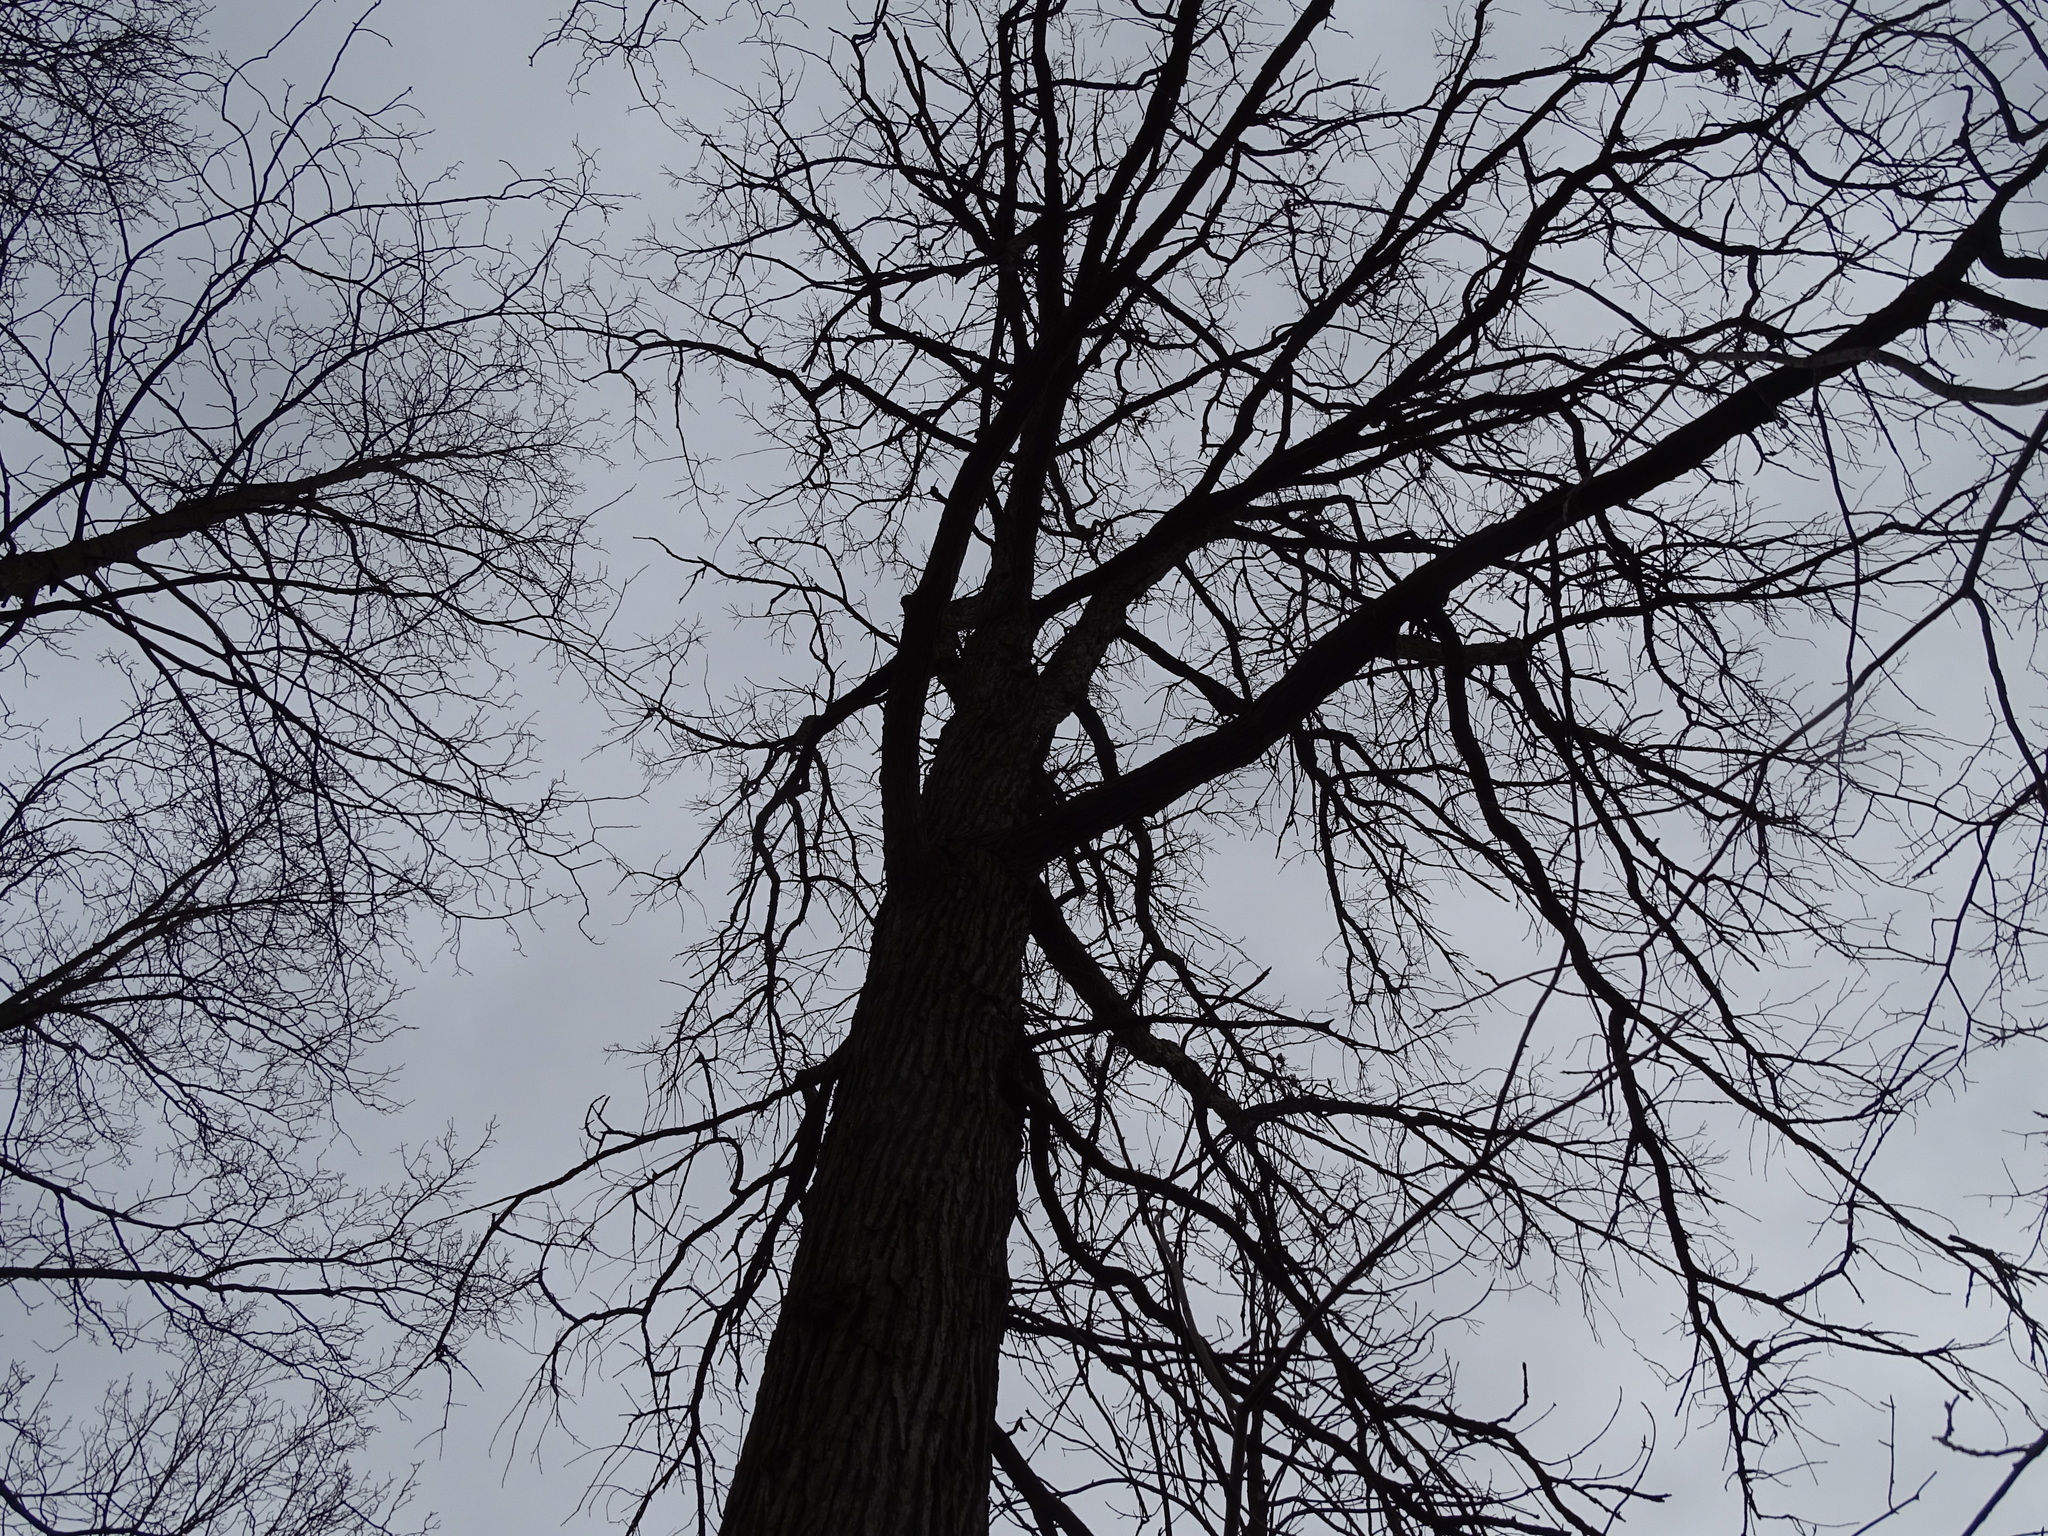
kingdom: Plantae
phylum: Tracheophyta
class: Magnoliopsida
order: Fagales
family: Fagaceae
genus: Quercus
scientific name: Quercus macrocarpa
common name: Bur oak
